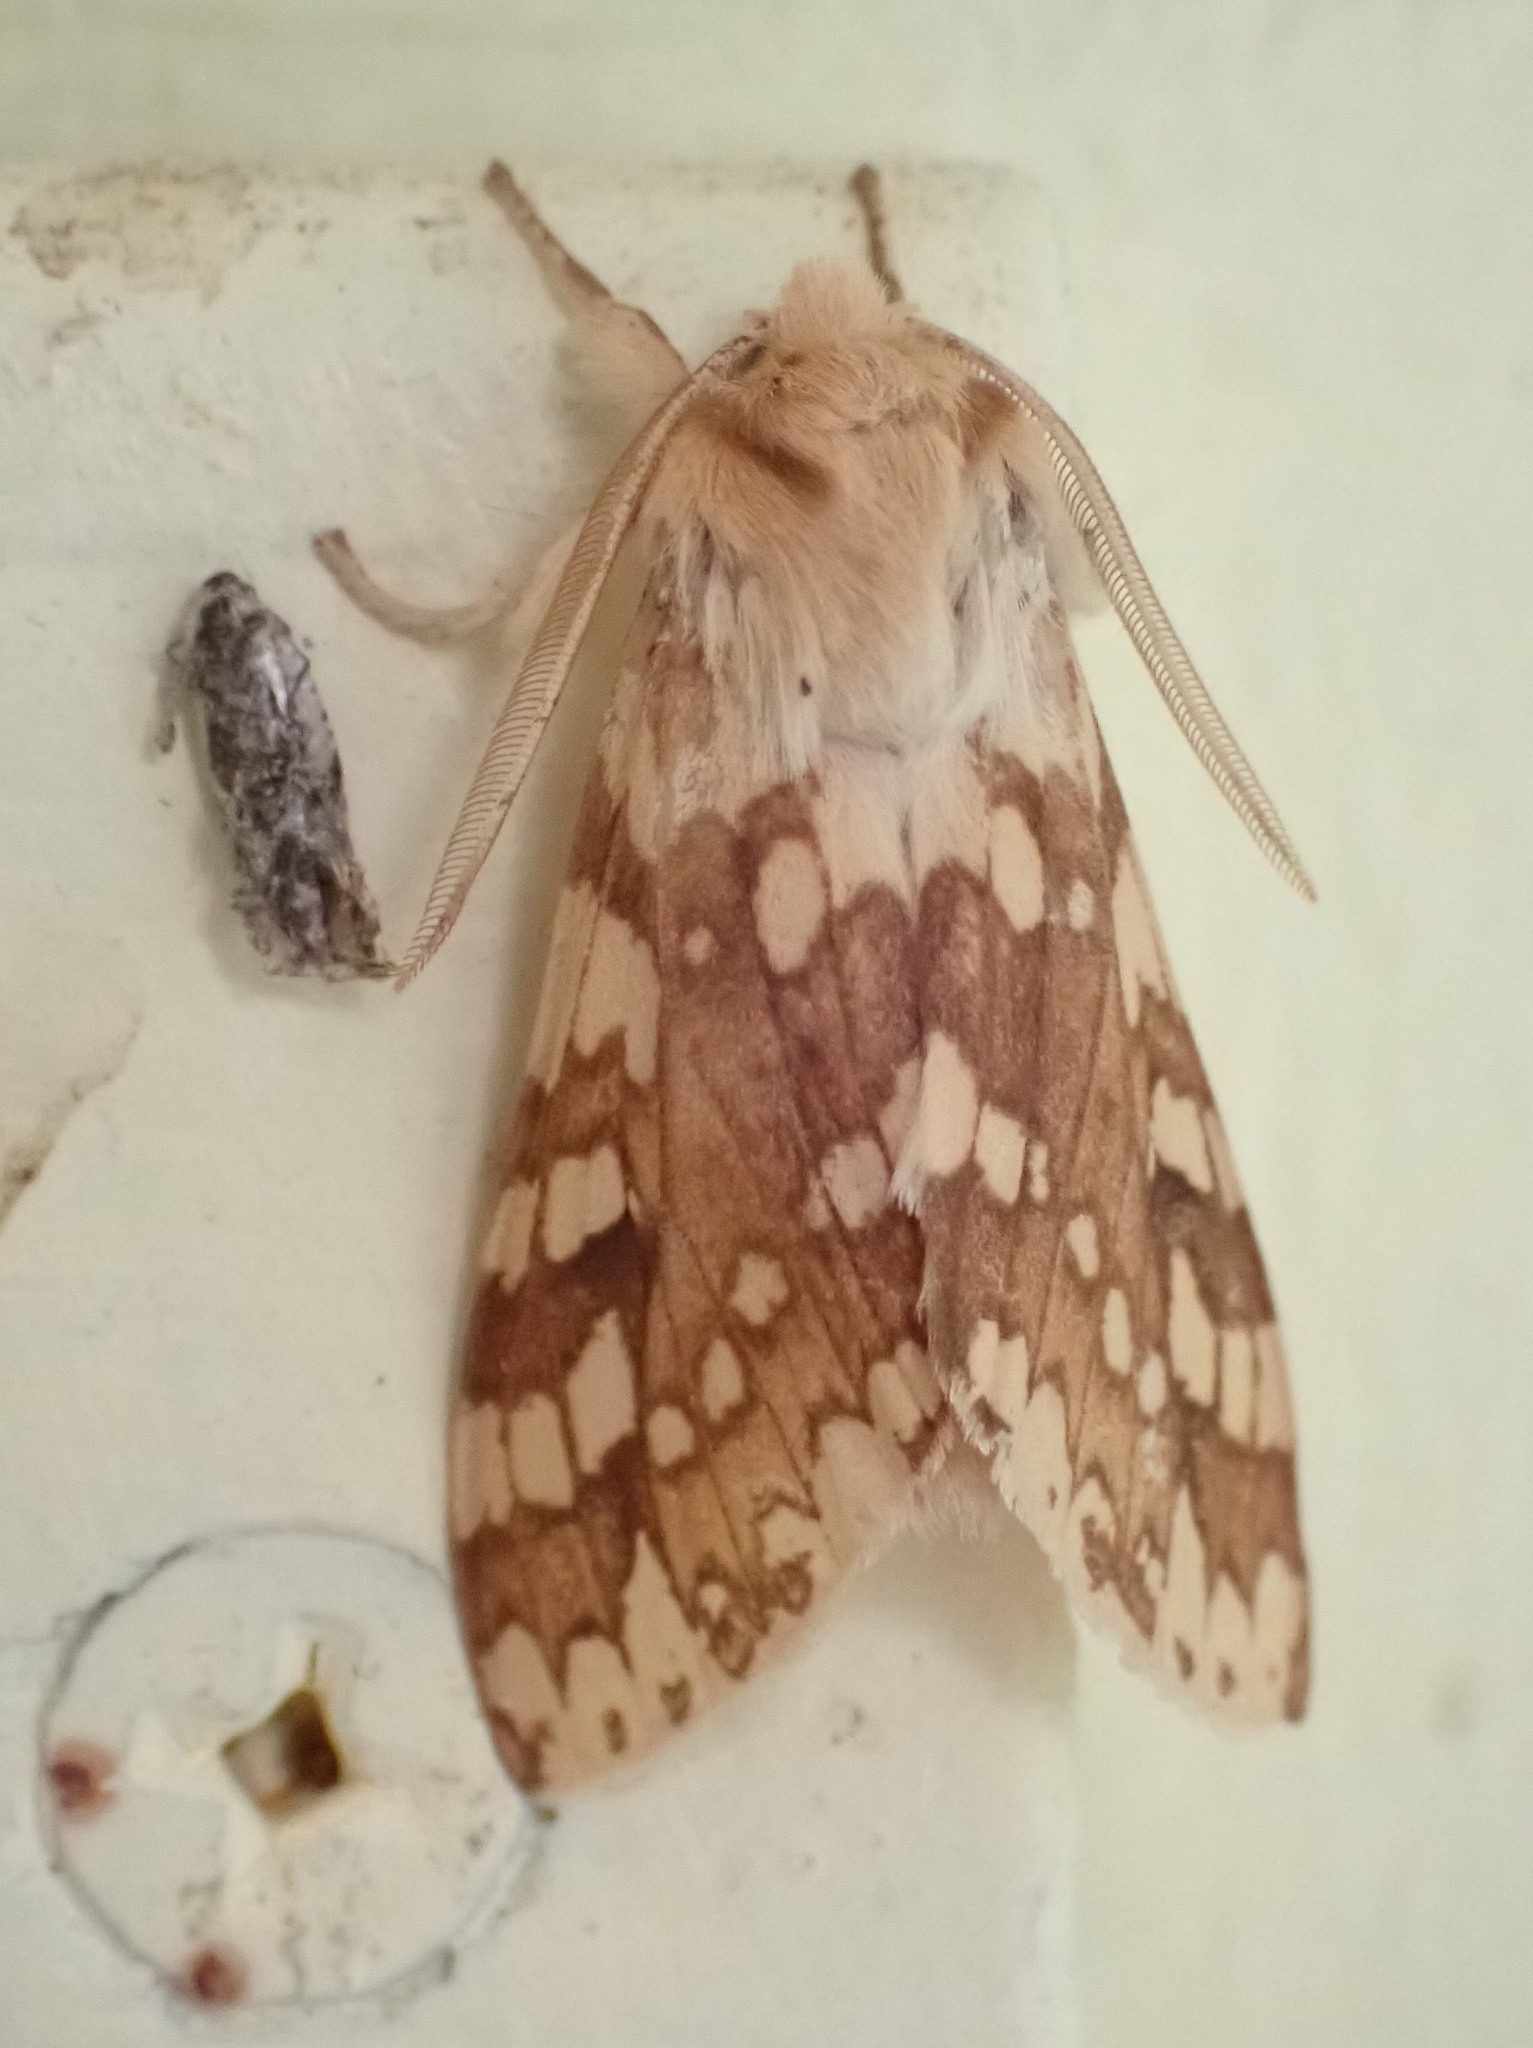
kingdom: Animalia
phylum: Arthropoda
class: Insecta
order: Lepidoptera
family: Erebidae
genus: Lophocampa
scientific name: Lophocampa maculata
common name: Spotted tussock moth
